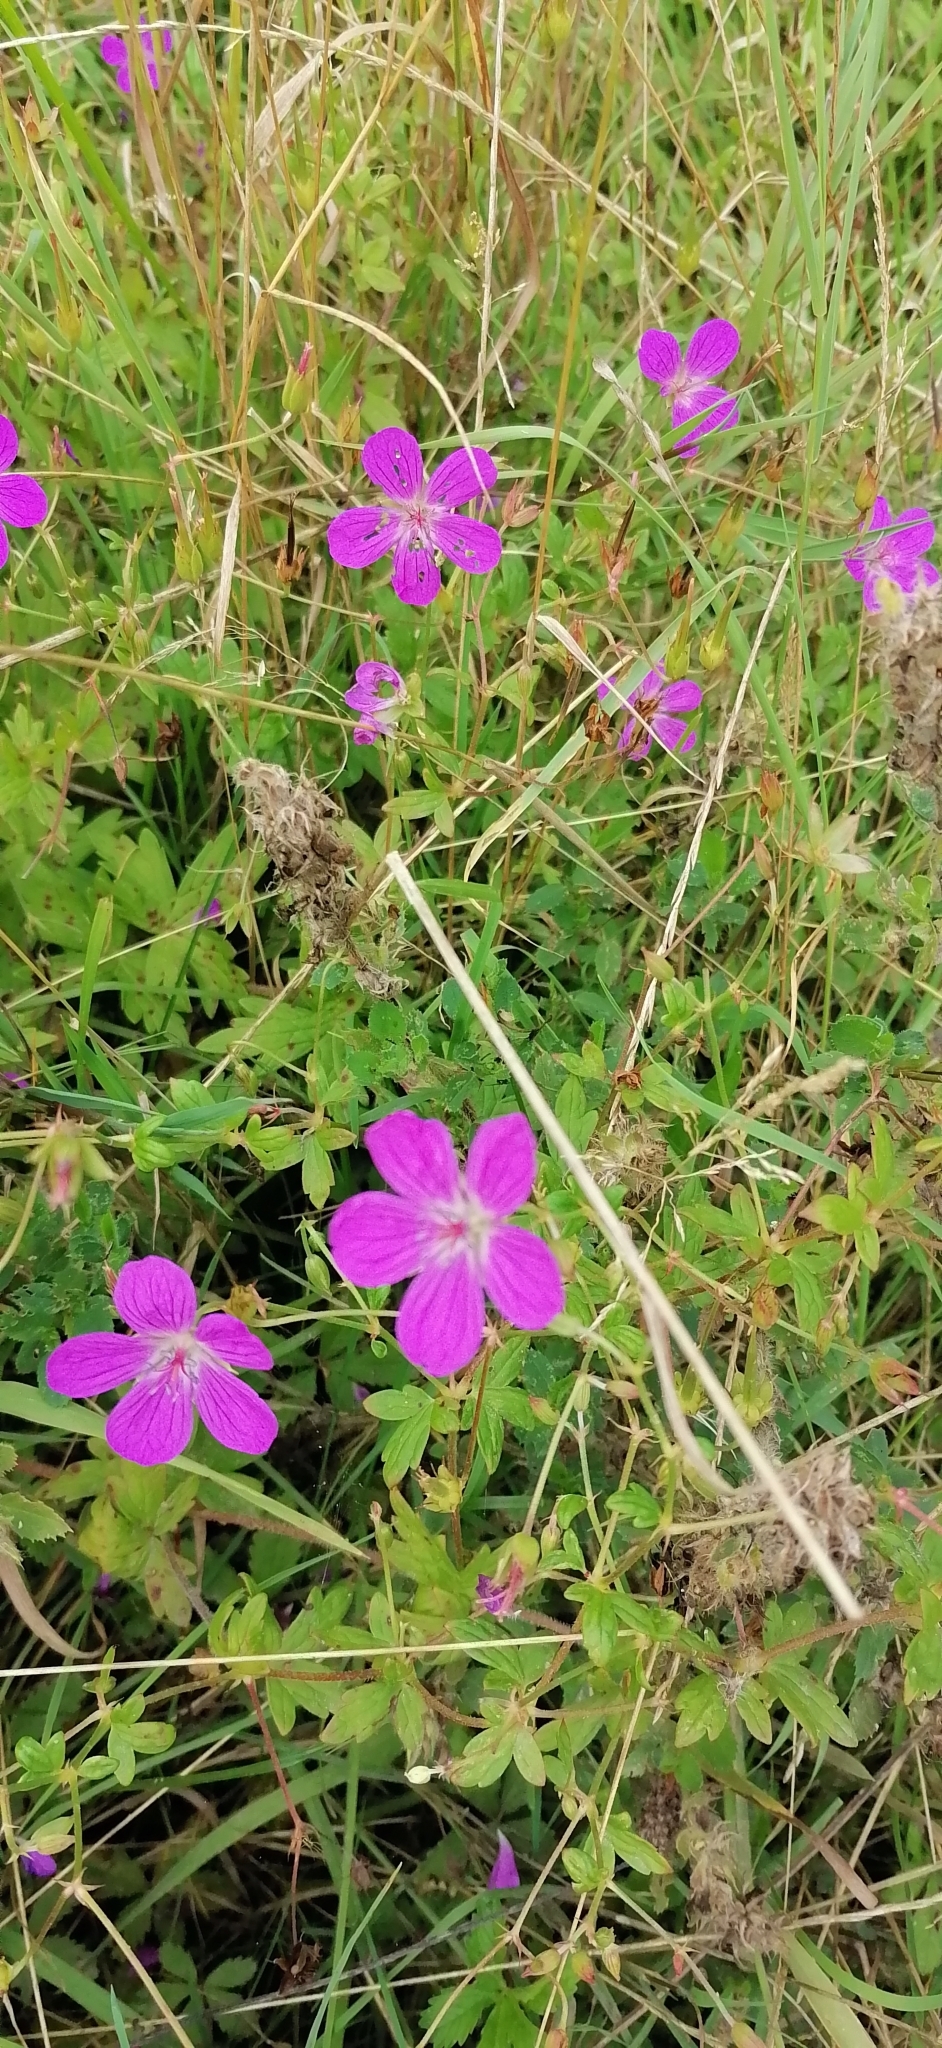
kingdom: Plantae
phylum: Tracheophyta
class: Magnoliopsida
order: Geraniales
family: Geraniaceae
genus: Geranium
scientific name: Geranium palustre
